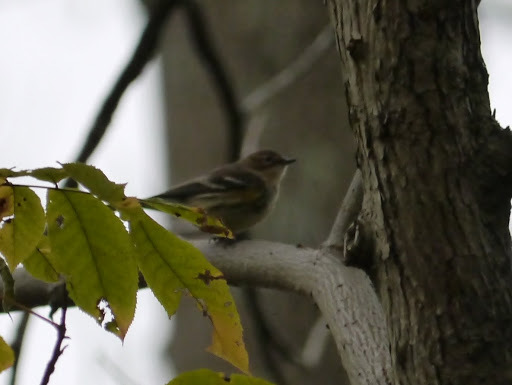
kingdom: Animalia
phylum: Chordata
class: Aves
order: Passeriformes
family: Parulidae
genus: Setophaga
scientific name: Setophaga coronata
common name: Myrtle warbler
